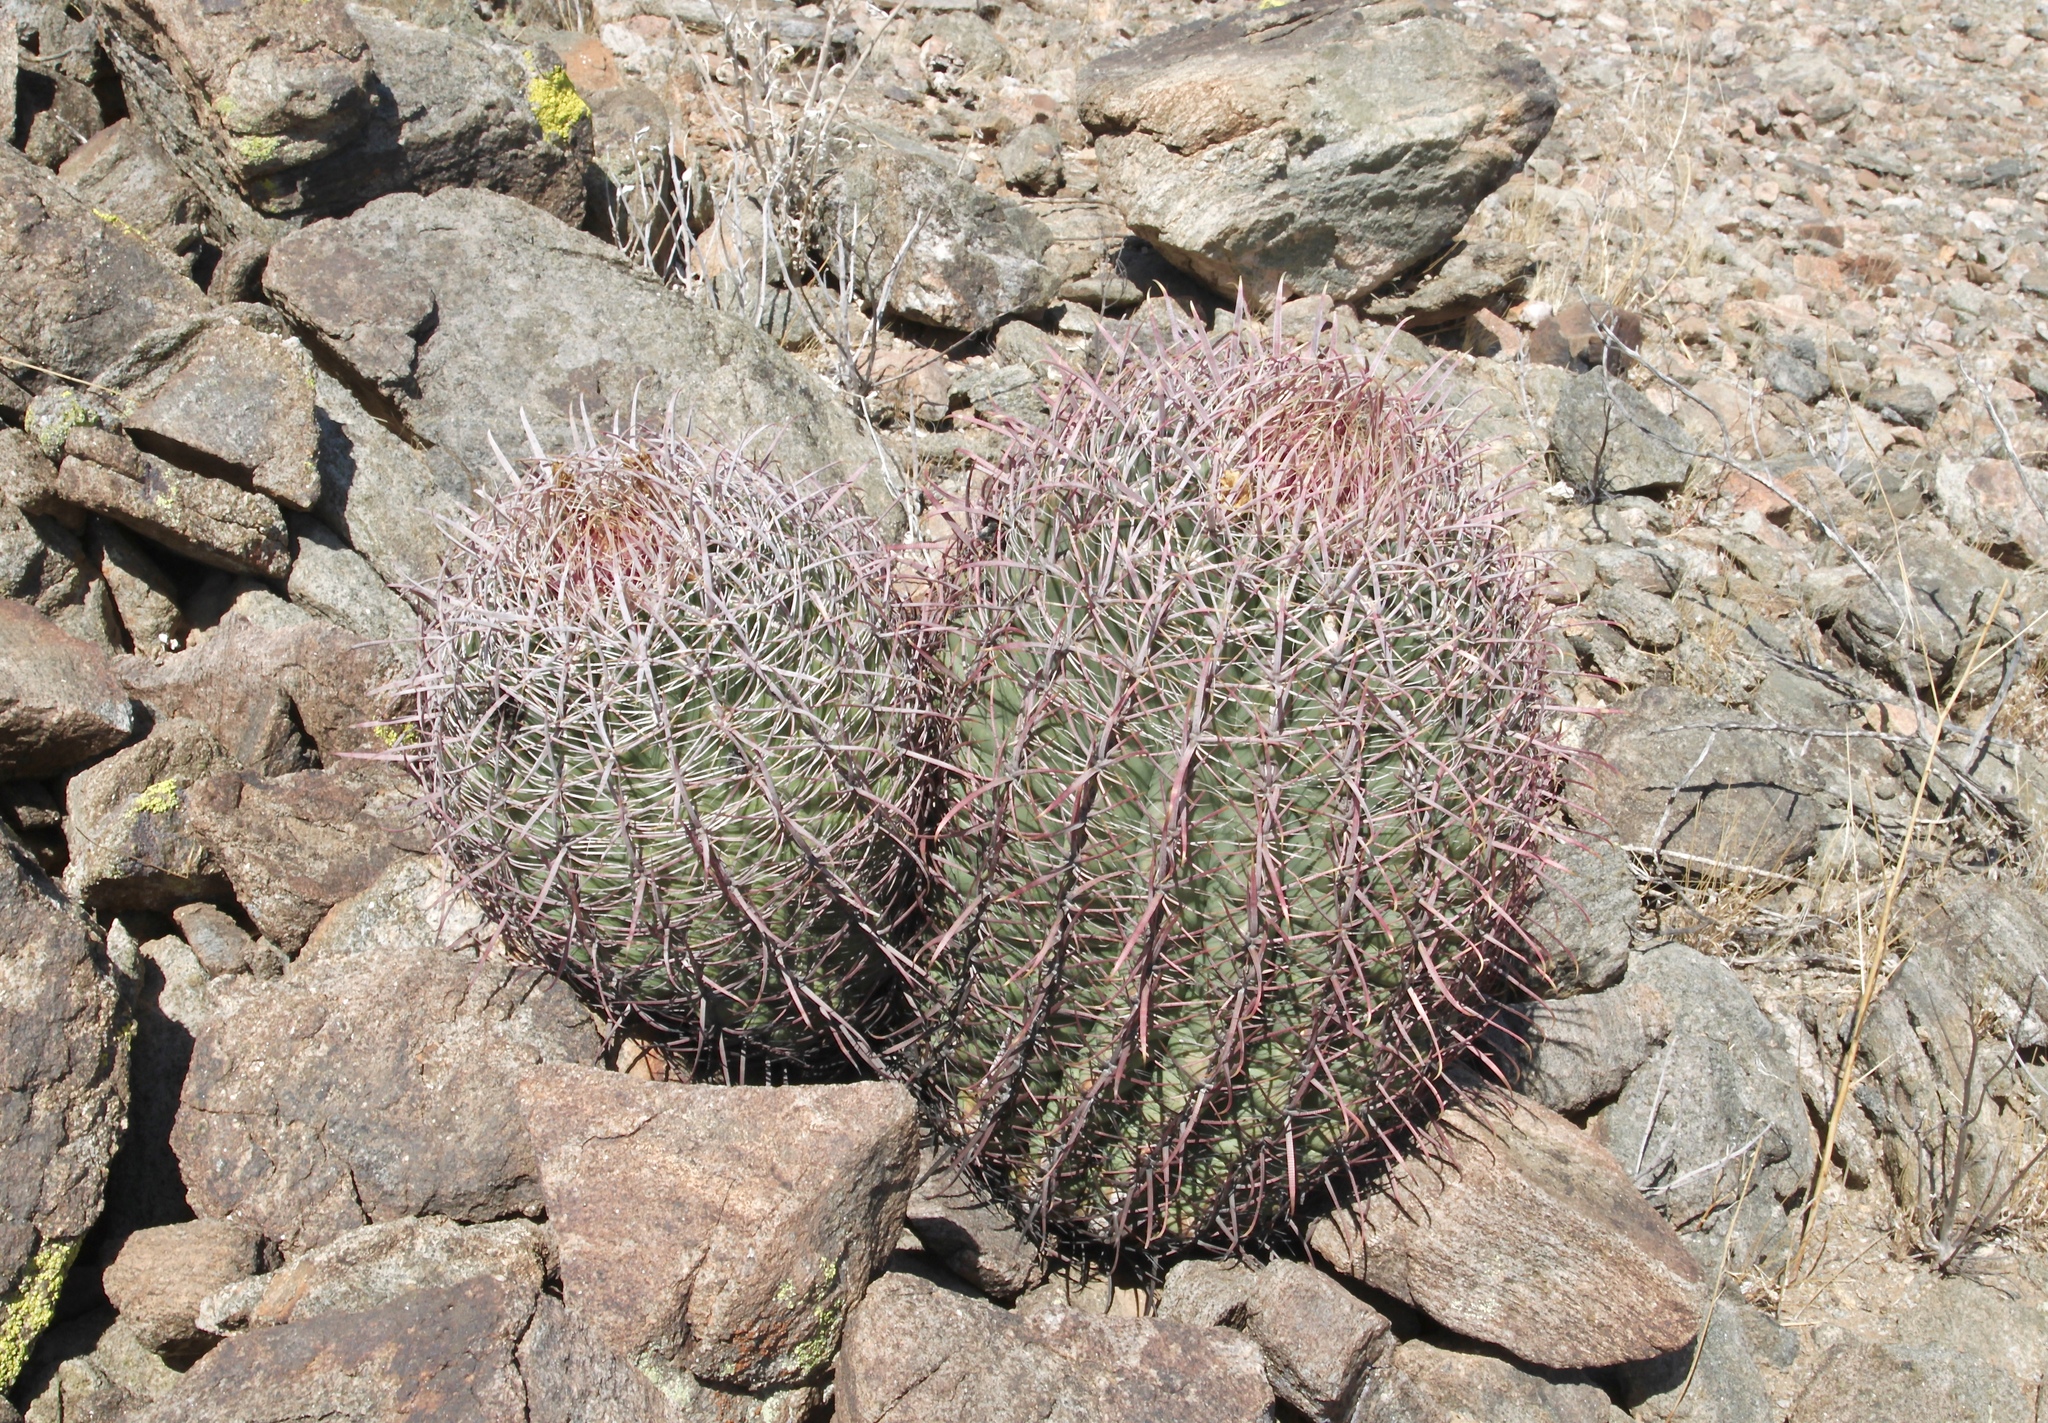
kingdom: Plantae
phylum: Tracheophyta
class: Magnoliopsida
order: Caryophyllales
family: Cactaceae
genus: Ferocactus
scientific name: Ferocactus cylindraceus
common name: California barrel cactus
